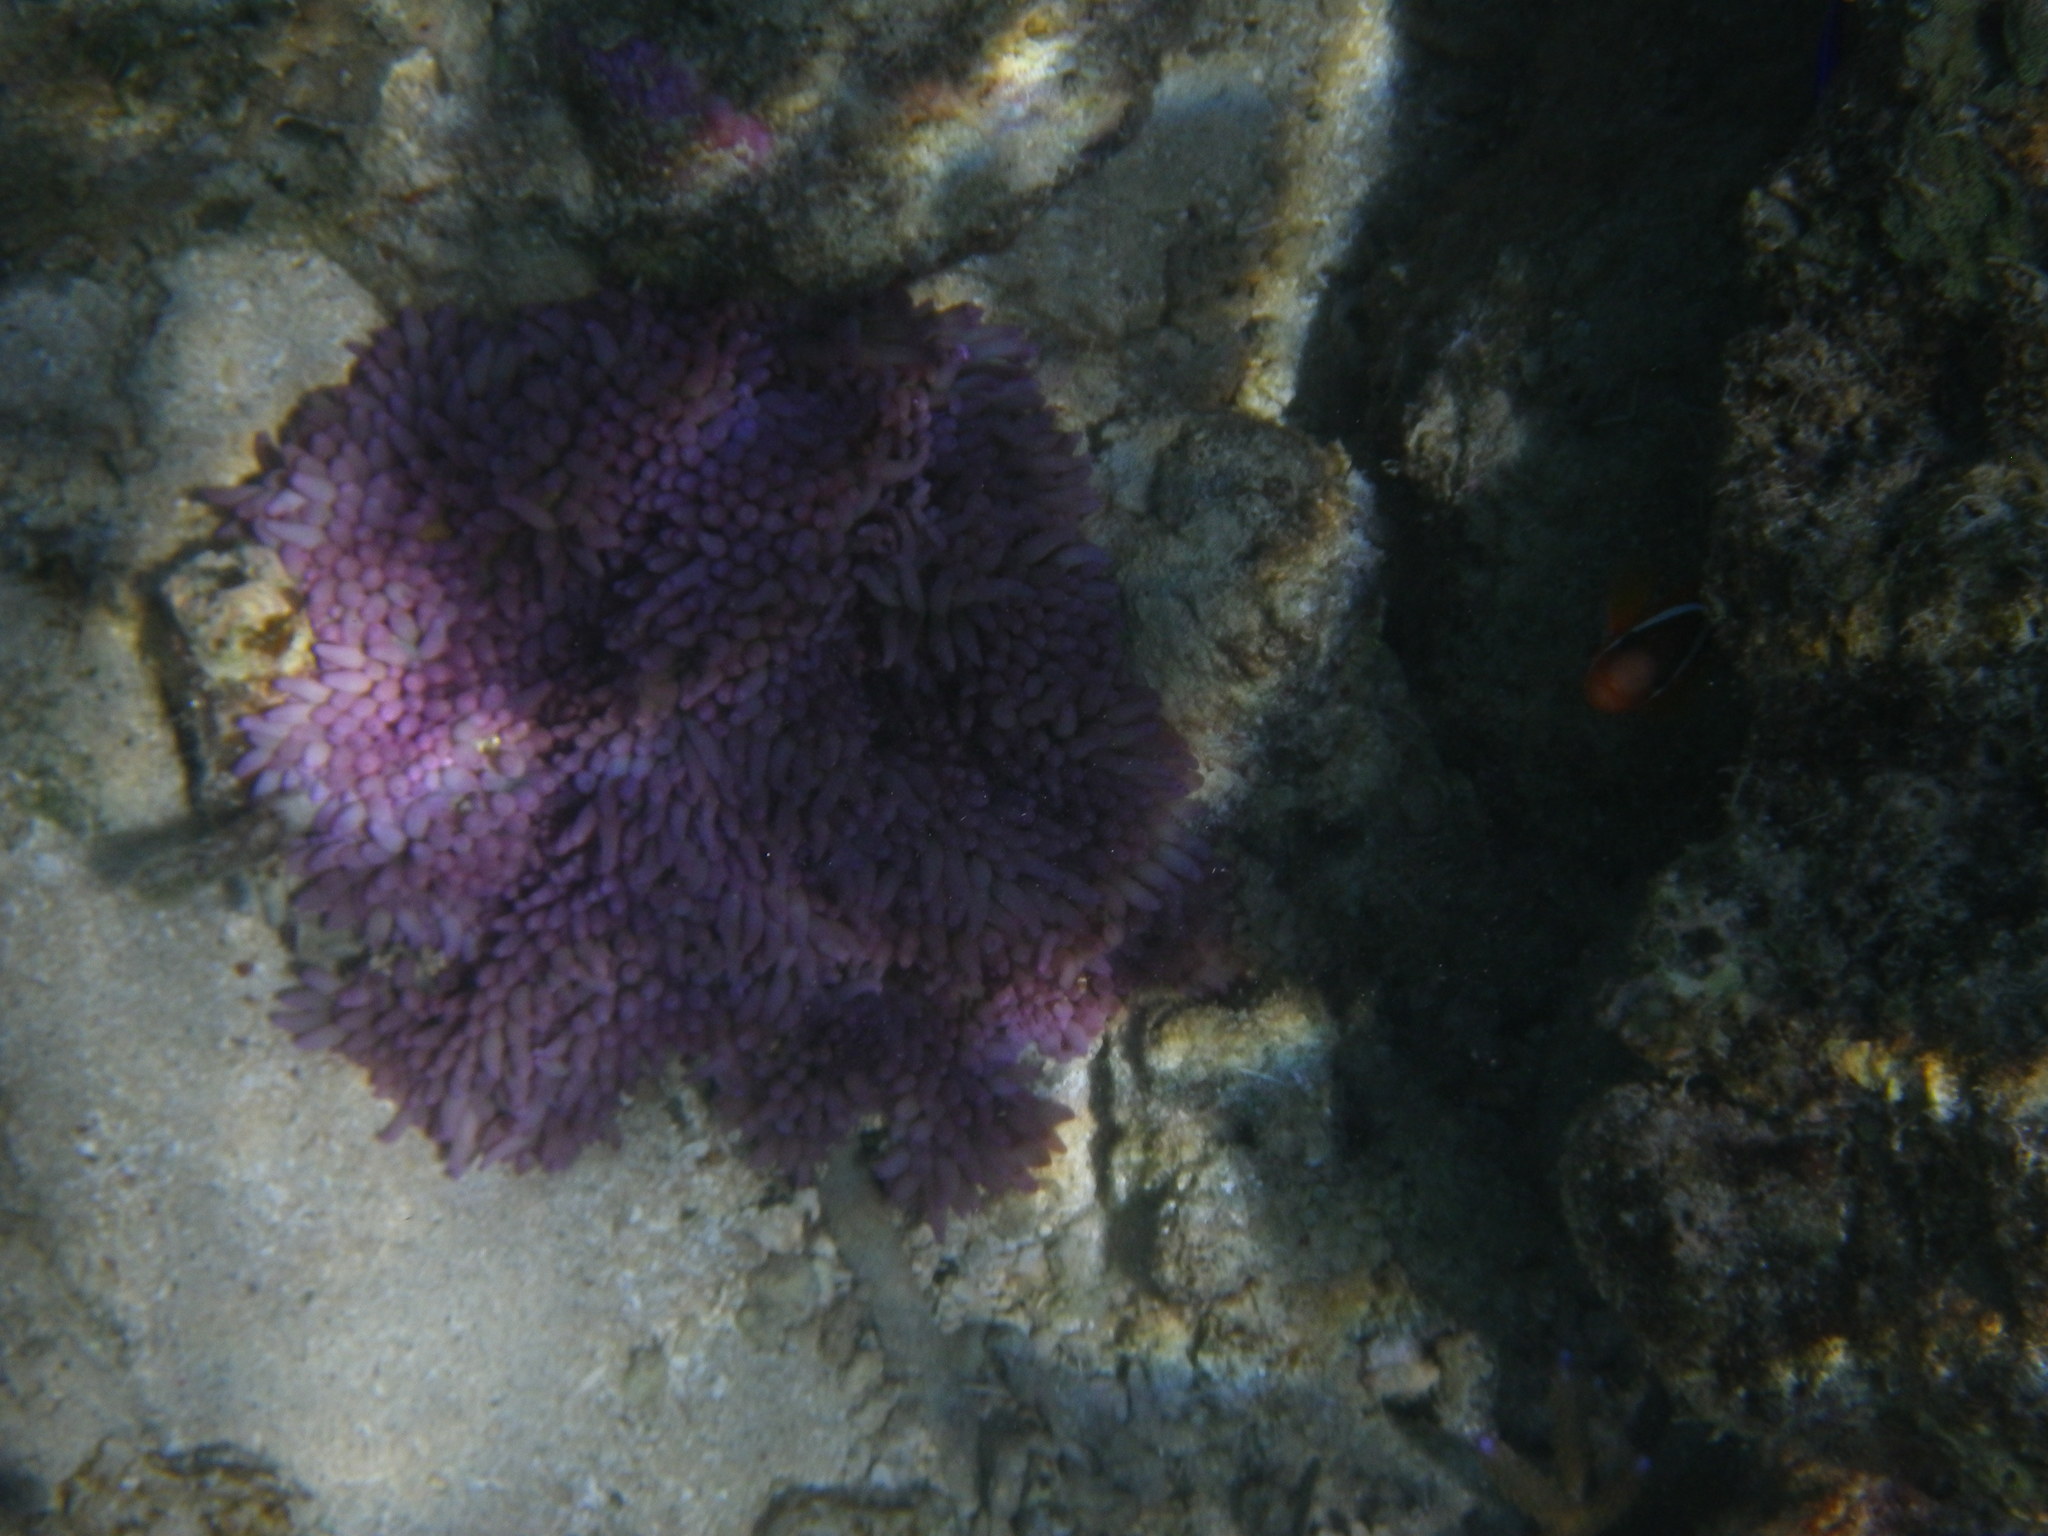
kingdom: Animalia
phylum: Cnidaria
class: Anthozoa
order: Actiniaria
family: Stichodactylidae
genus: Radianthus
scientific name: Radianthus crispa
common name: Leather anemone
